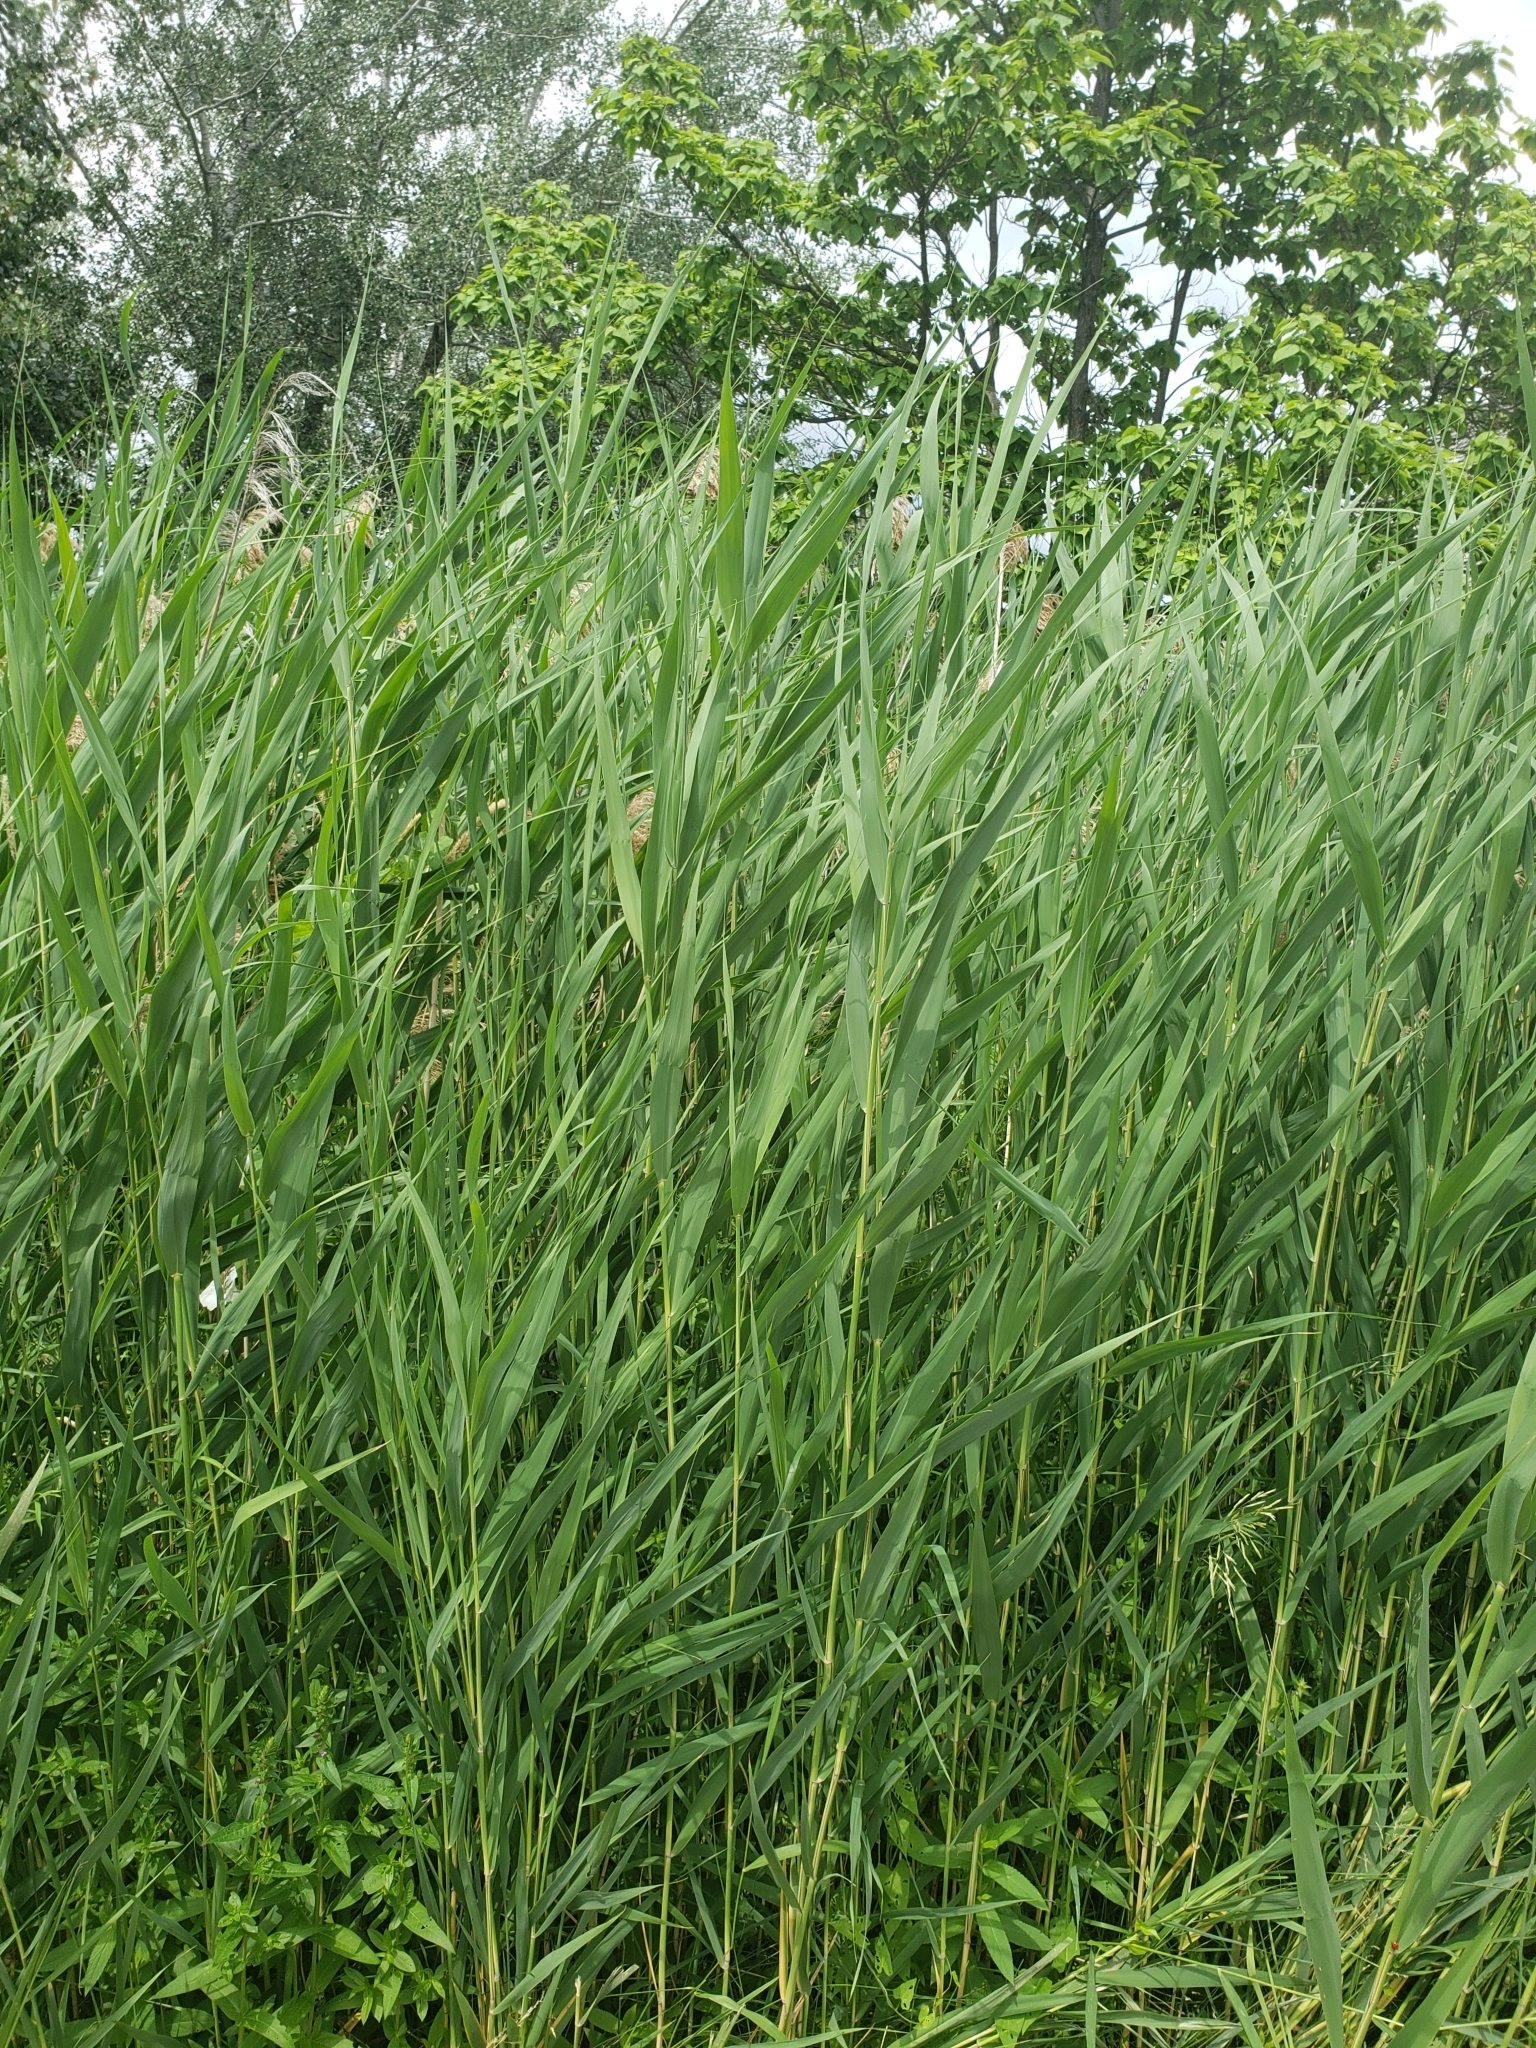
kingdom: Plantae
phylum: Tracheophyta
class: Liliopsida
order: Poales
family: Poaceae
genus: Phragmites
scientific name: Phragmites australis
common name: Common reed
